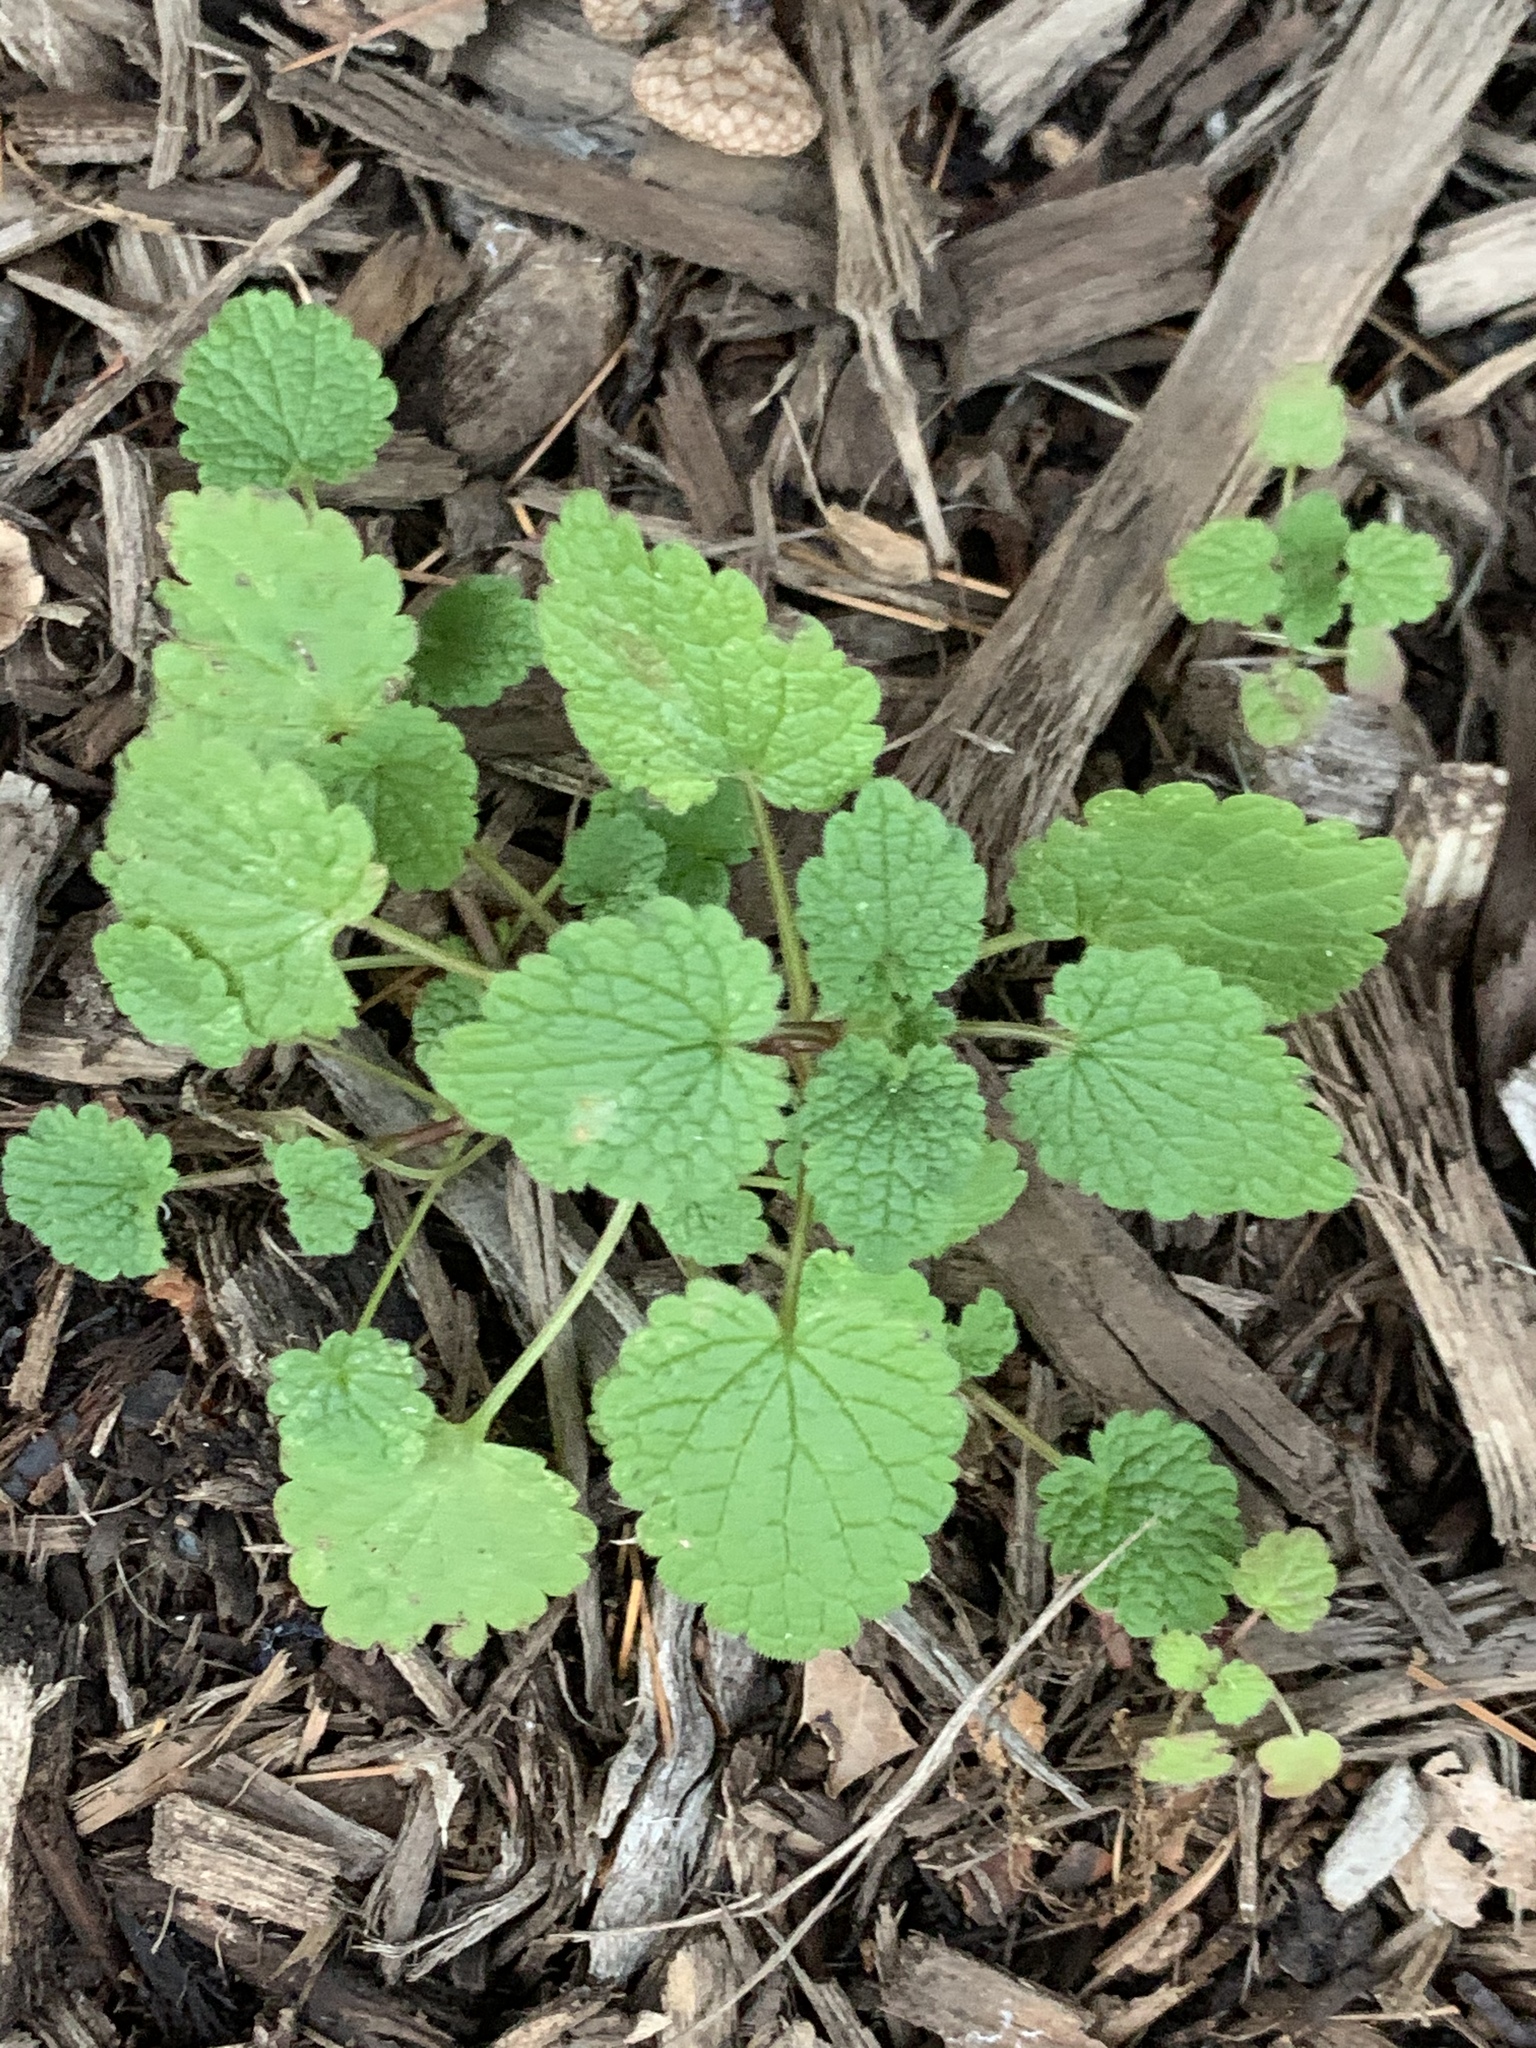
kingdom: Plantae
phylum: Tracheophyta
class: Magnoliopsida
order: Lamiales
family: Lamiaceae
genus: Lamium
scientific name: Lamium purpureum
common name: Red dead-nettle
